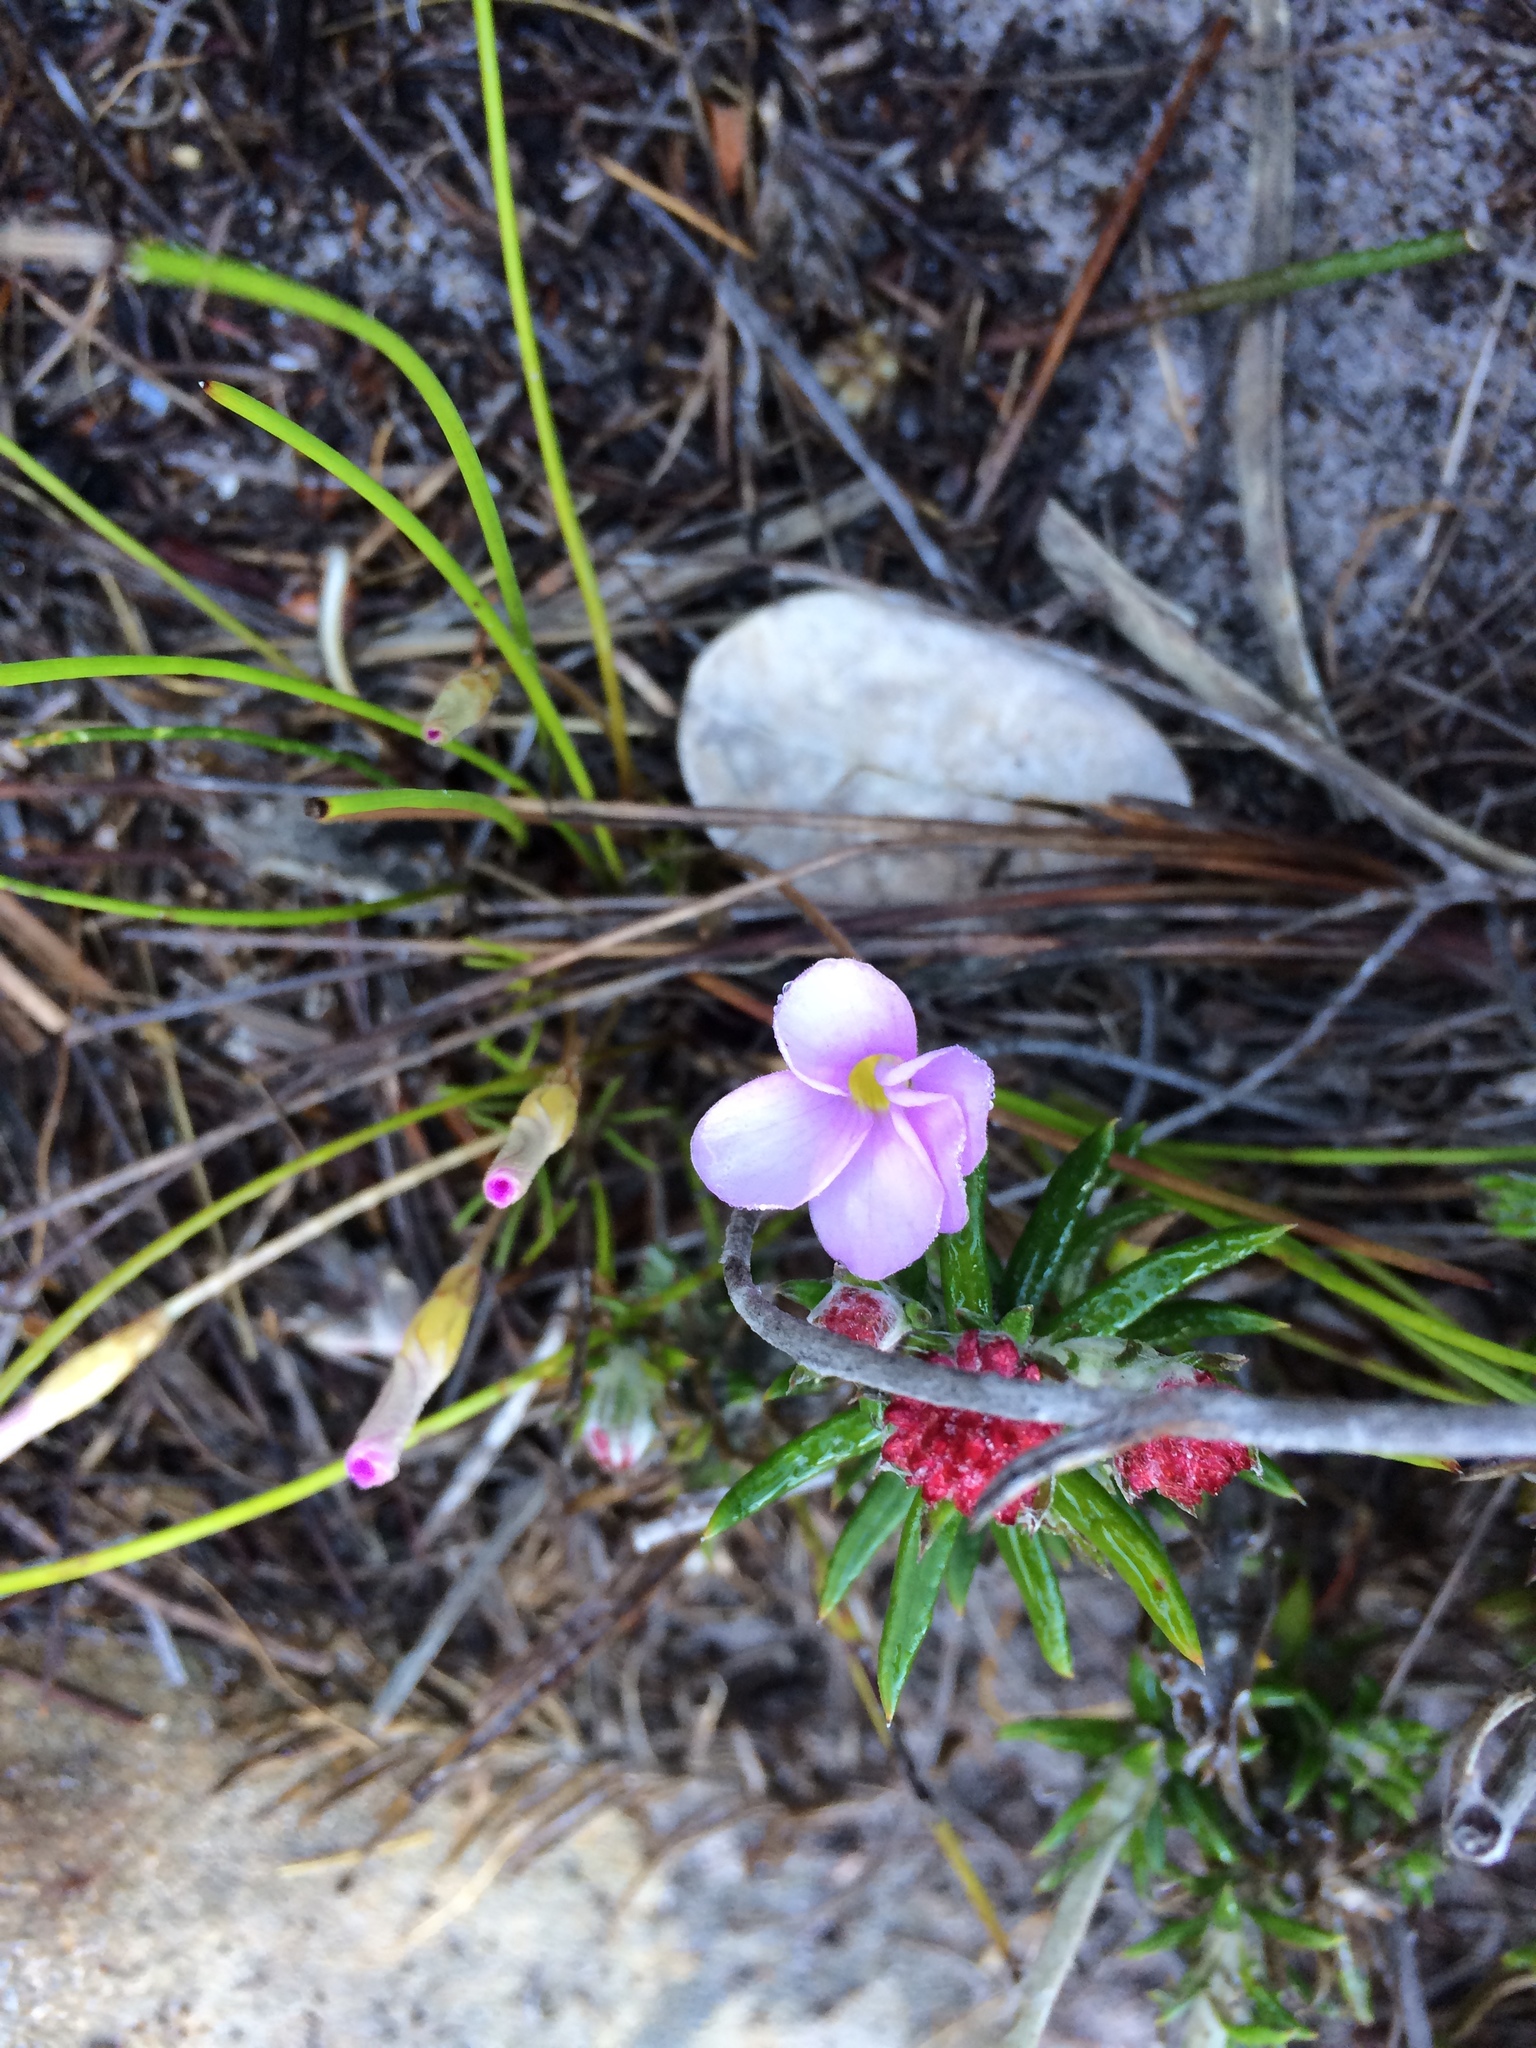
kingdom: Plantae
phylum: Tracheophyta
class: Magnoliopsida
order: Oxalidales
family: Oxalidaceae
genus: Oxalis
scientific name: Oxalis polyphylla
